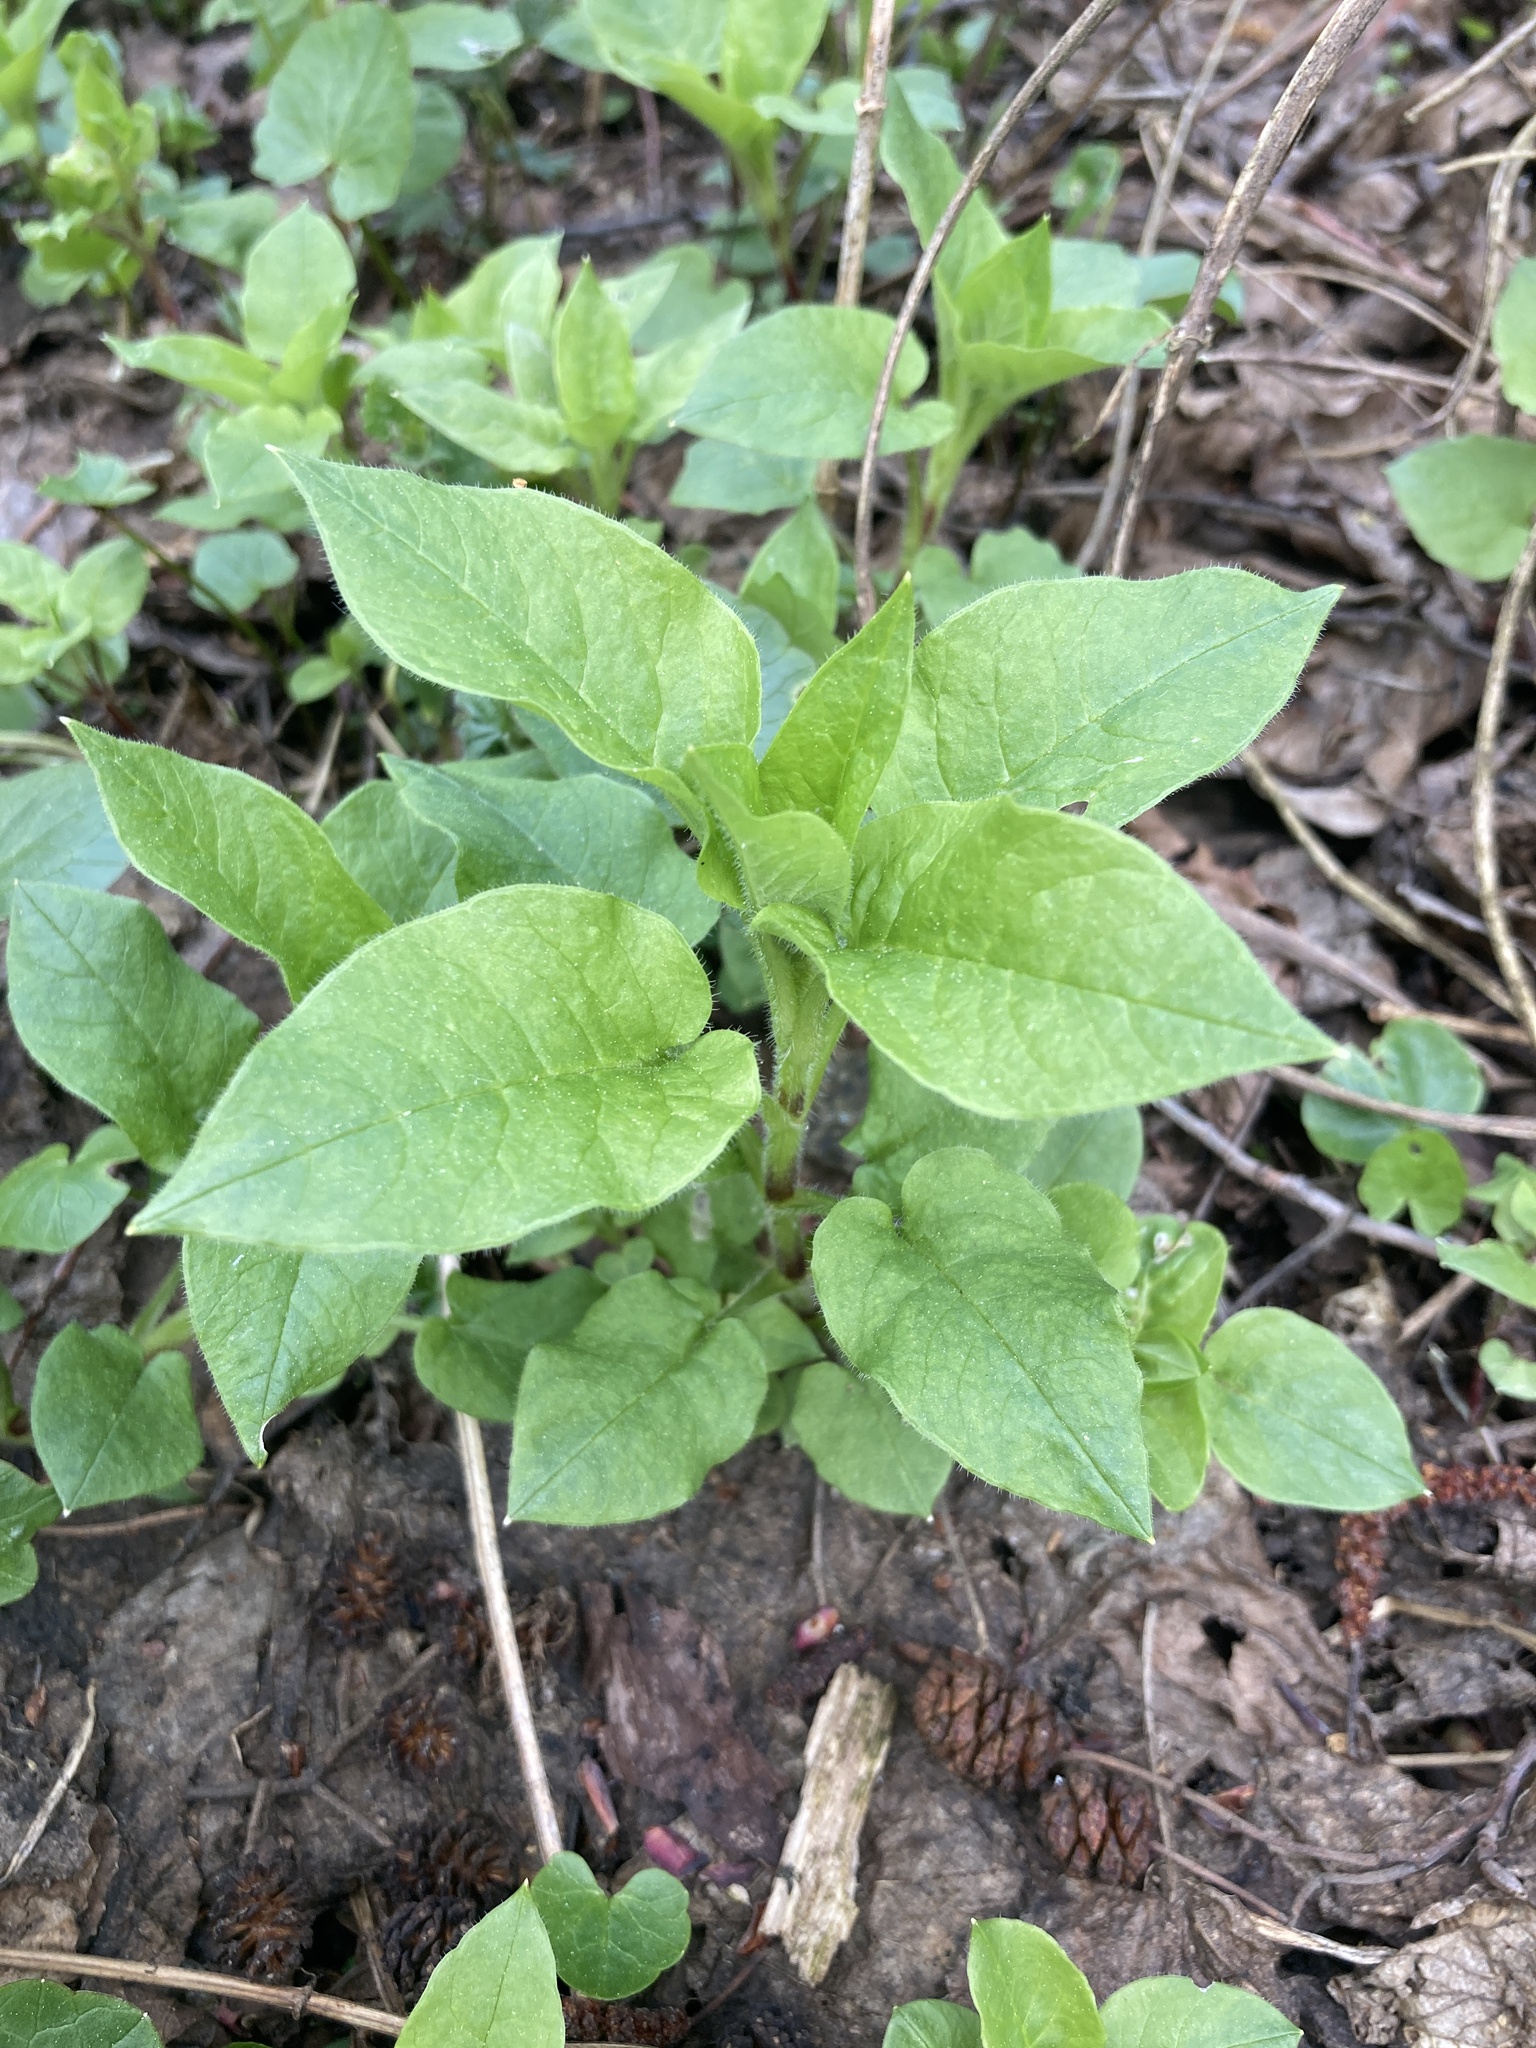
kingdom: Plantae
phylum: Tracheophyta
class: Magnoliopsida
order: Caryophyllales
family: Caryophyllaceae
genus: Stellaria
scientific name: Stellaria nemorum
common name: Wood stitchwort
